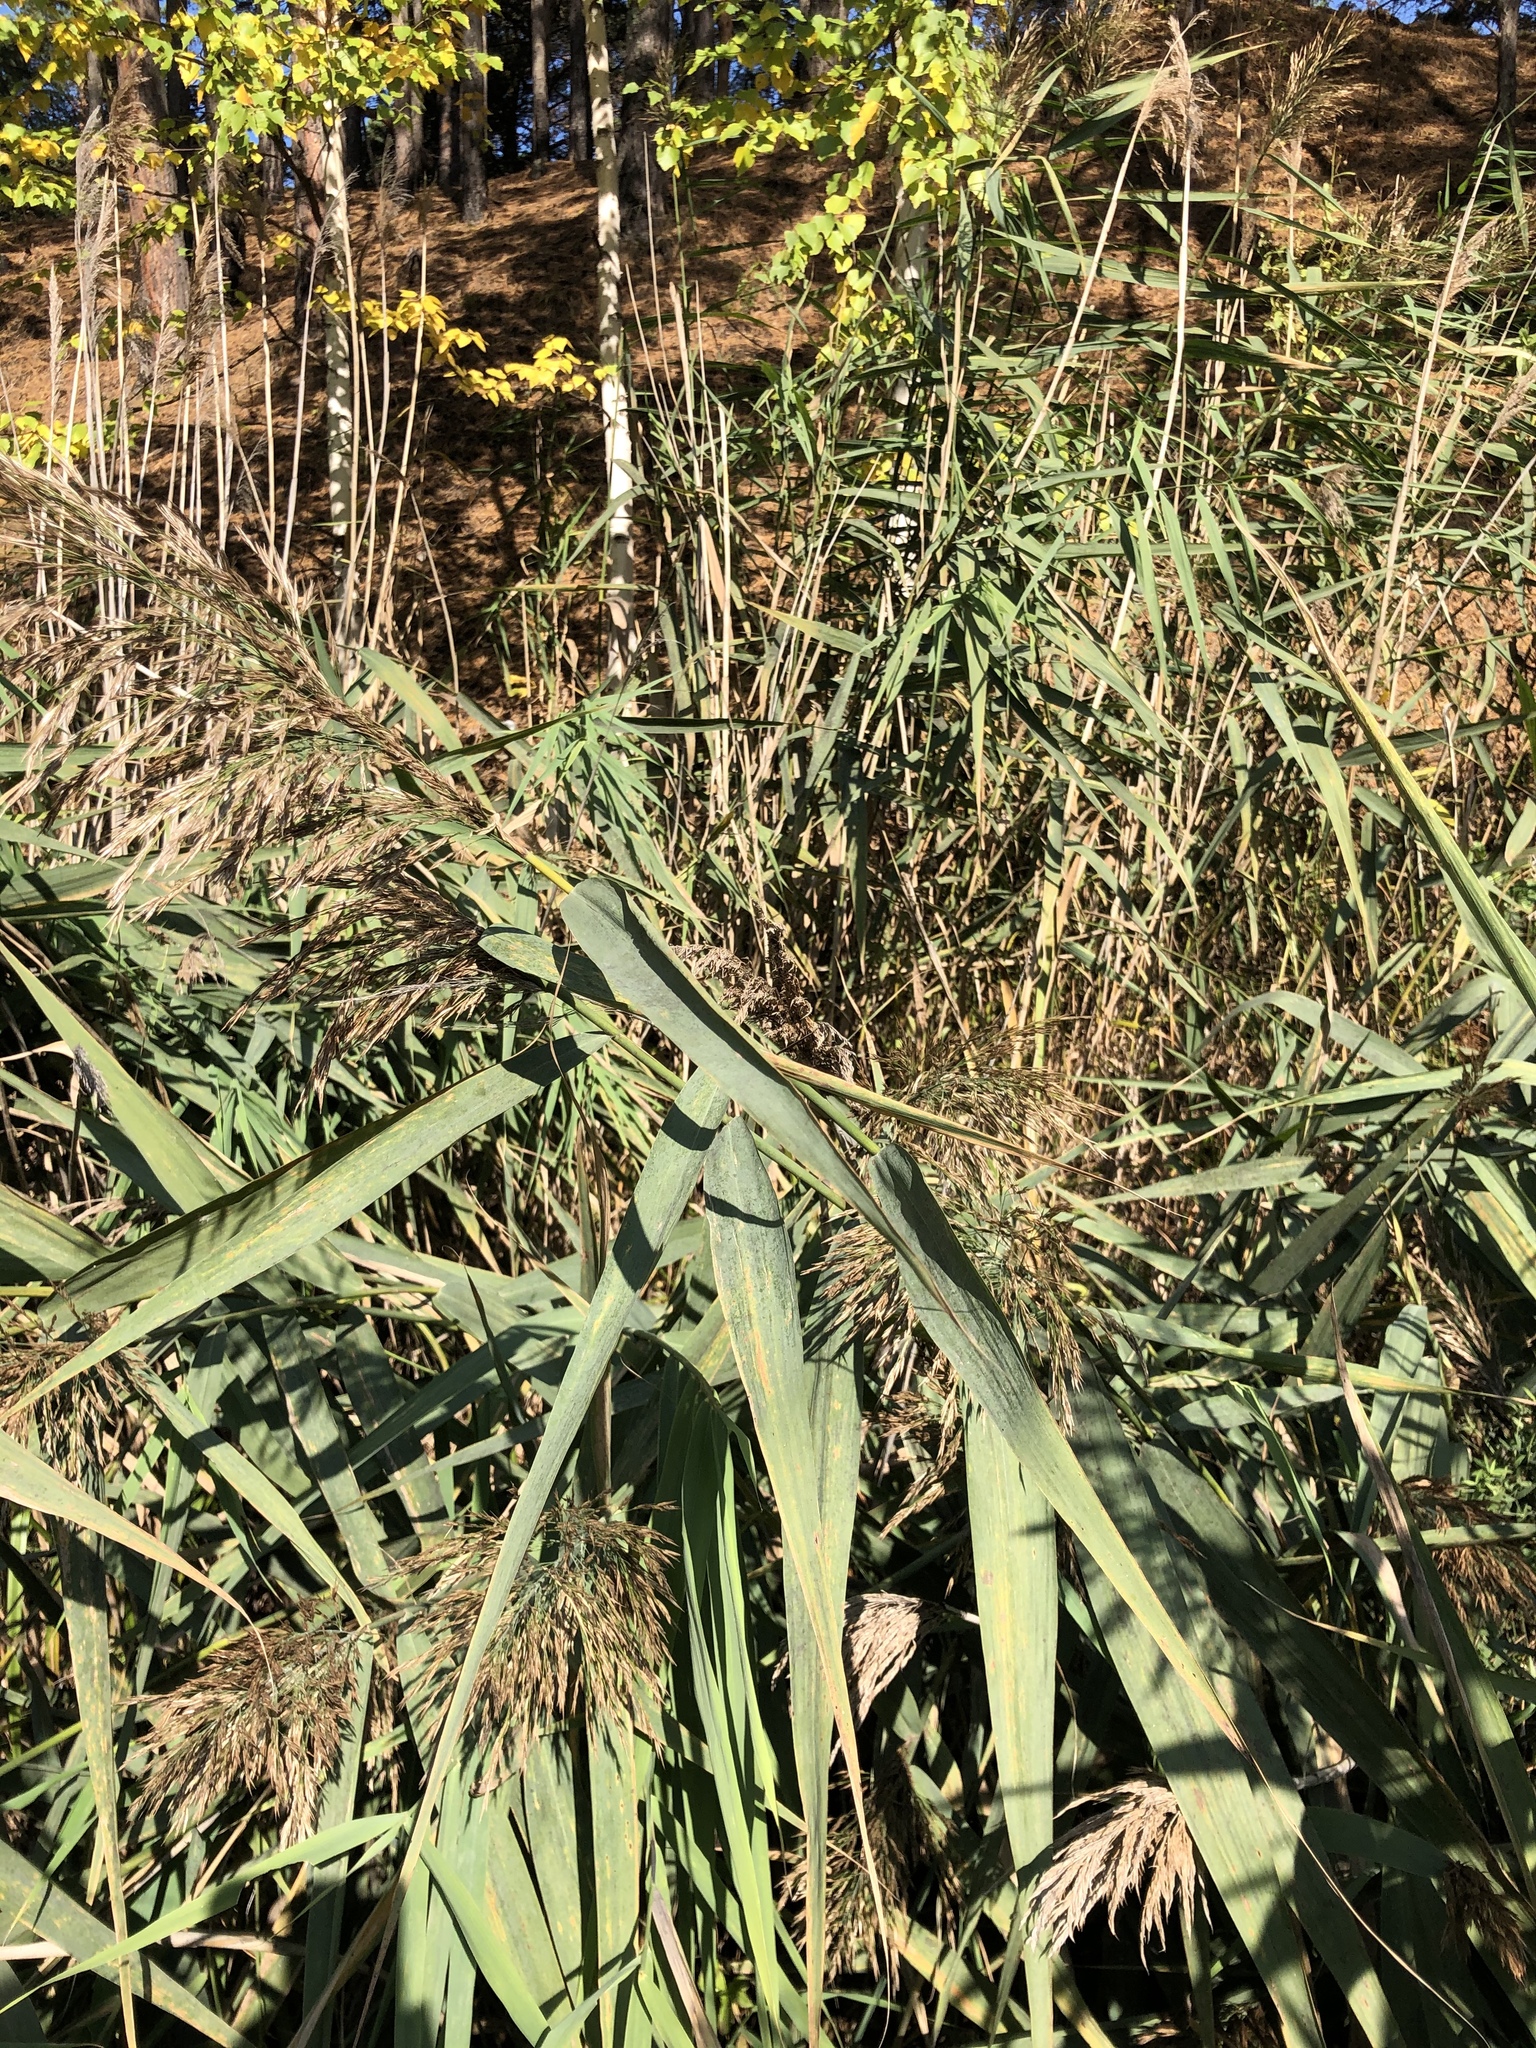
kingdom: Plantae
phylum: Tracheophyta
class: Liliopsida
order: Poales
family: Poaceae
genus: Phragmites
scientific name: Phragmites australis
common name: Common reed
